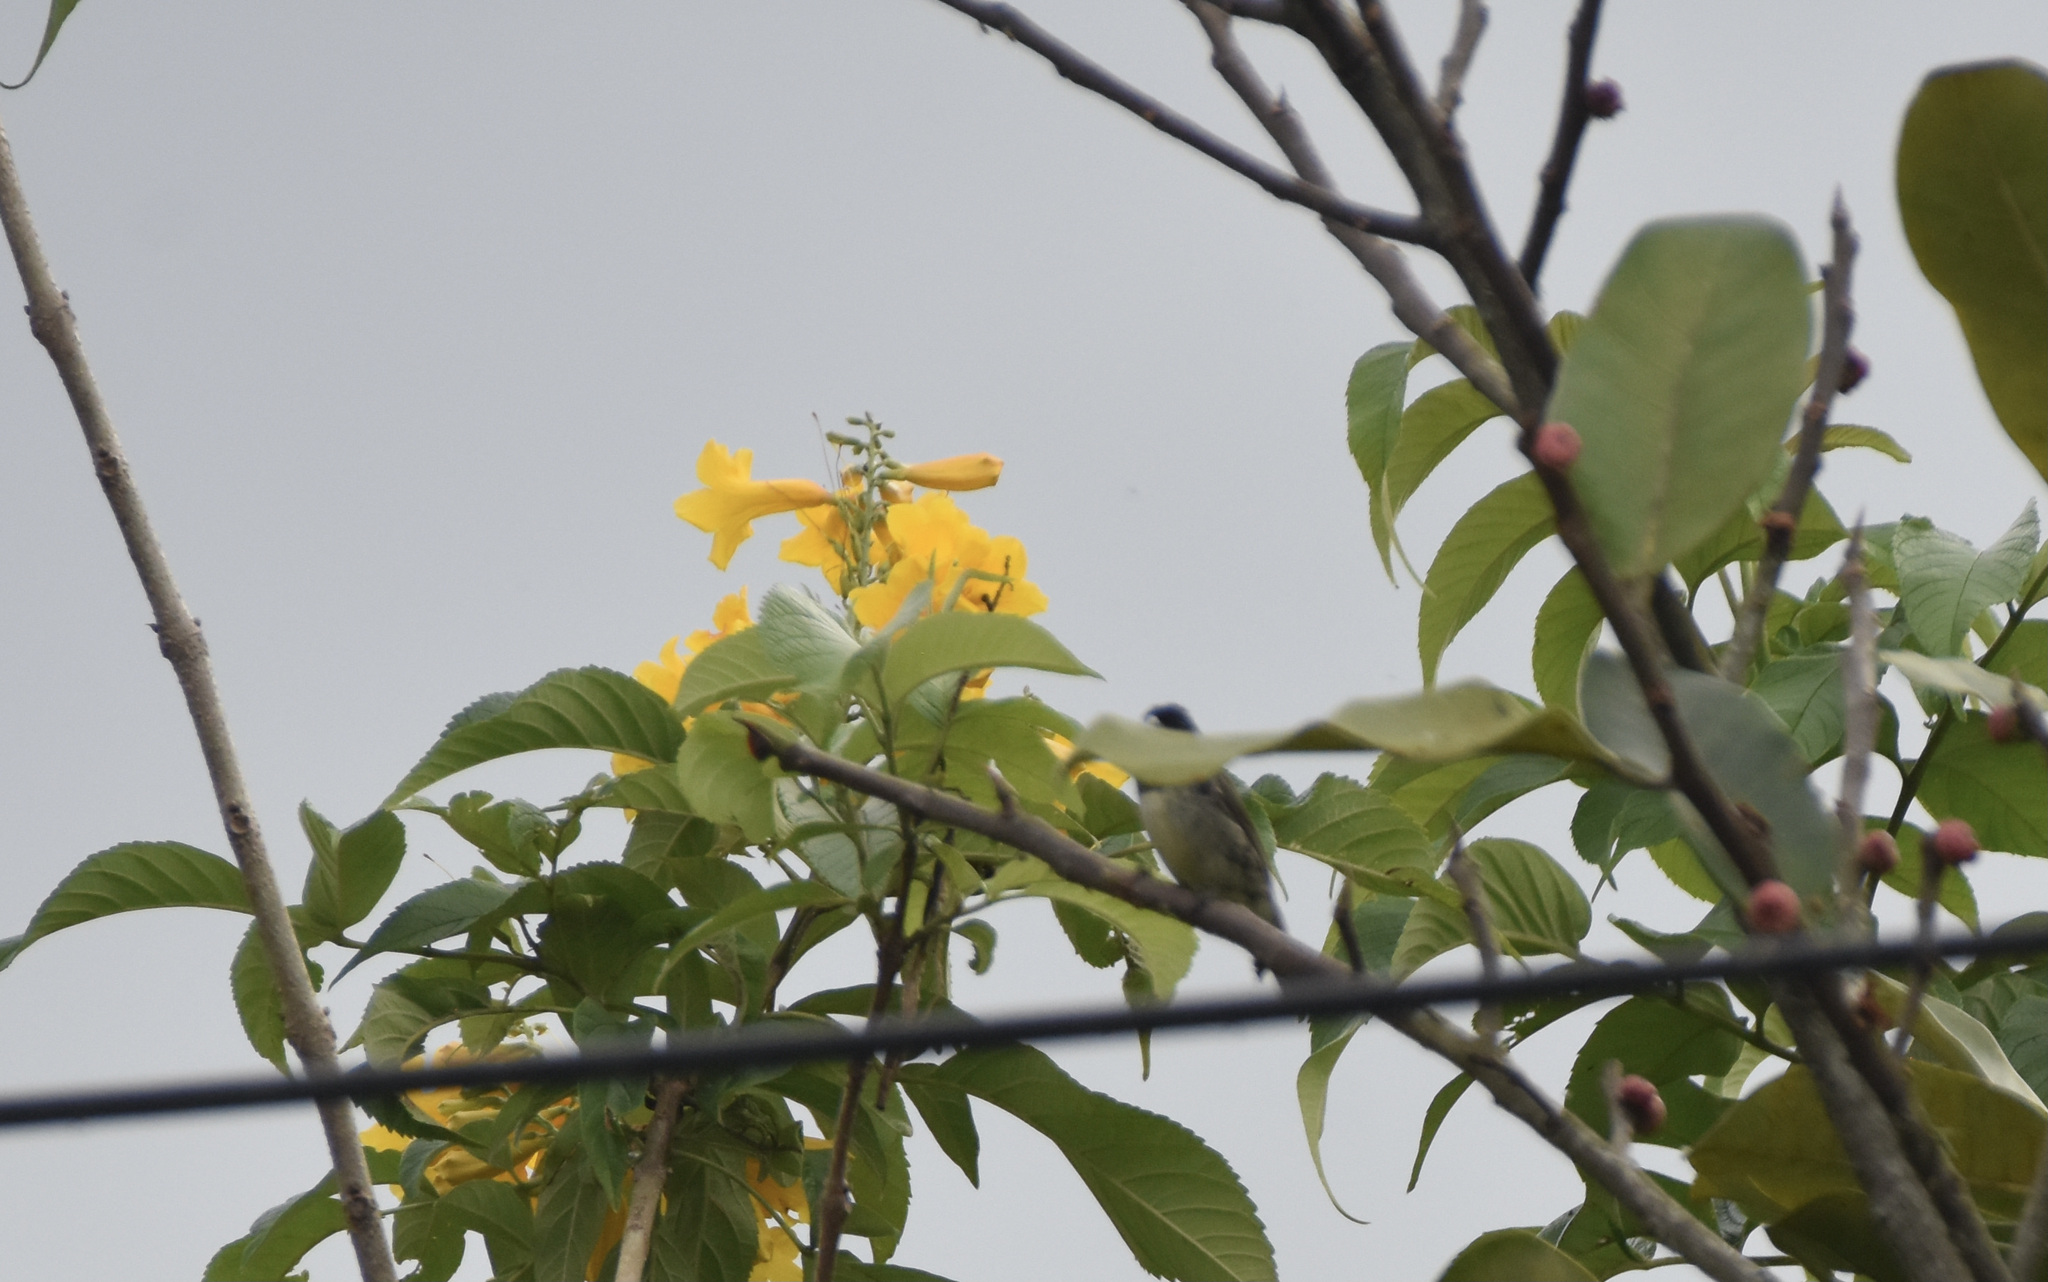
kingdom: Animalia
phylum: Chordata
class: Aves
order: Passeriformes
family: Thraupidae
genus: Sporophila
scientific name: Sporophila nigricollis
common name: Yellow-bellied seedeater
